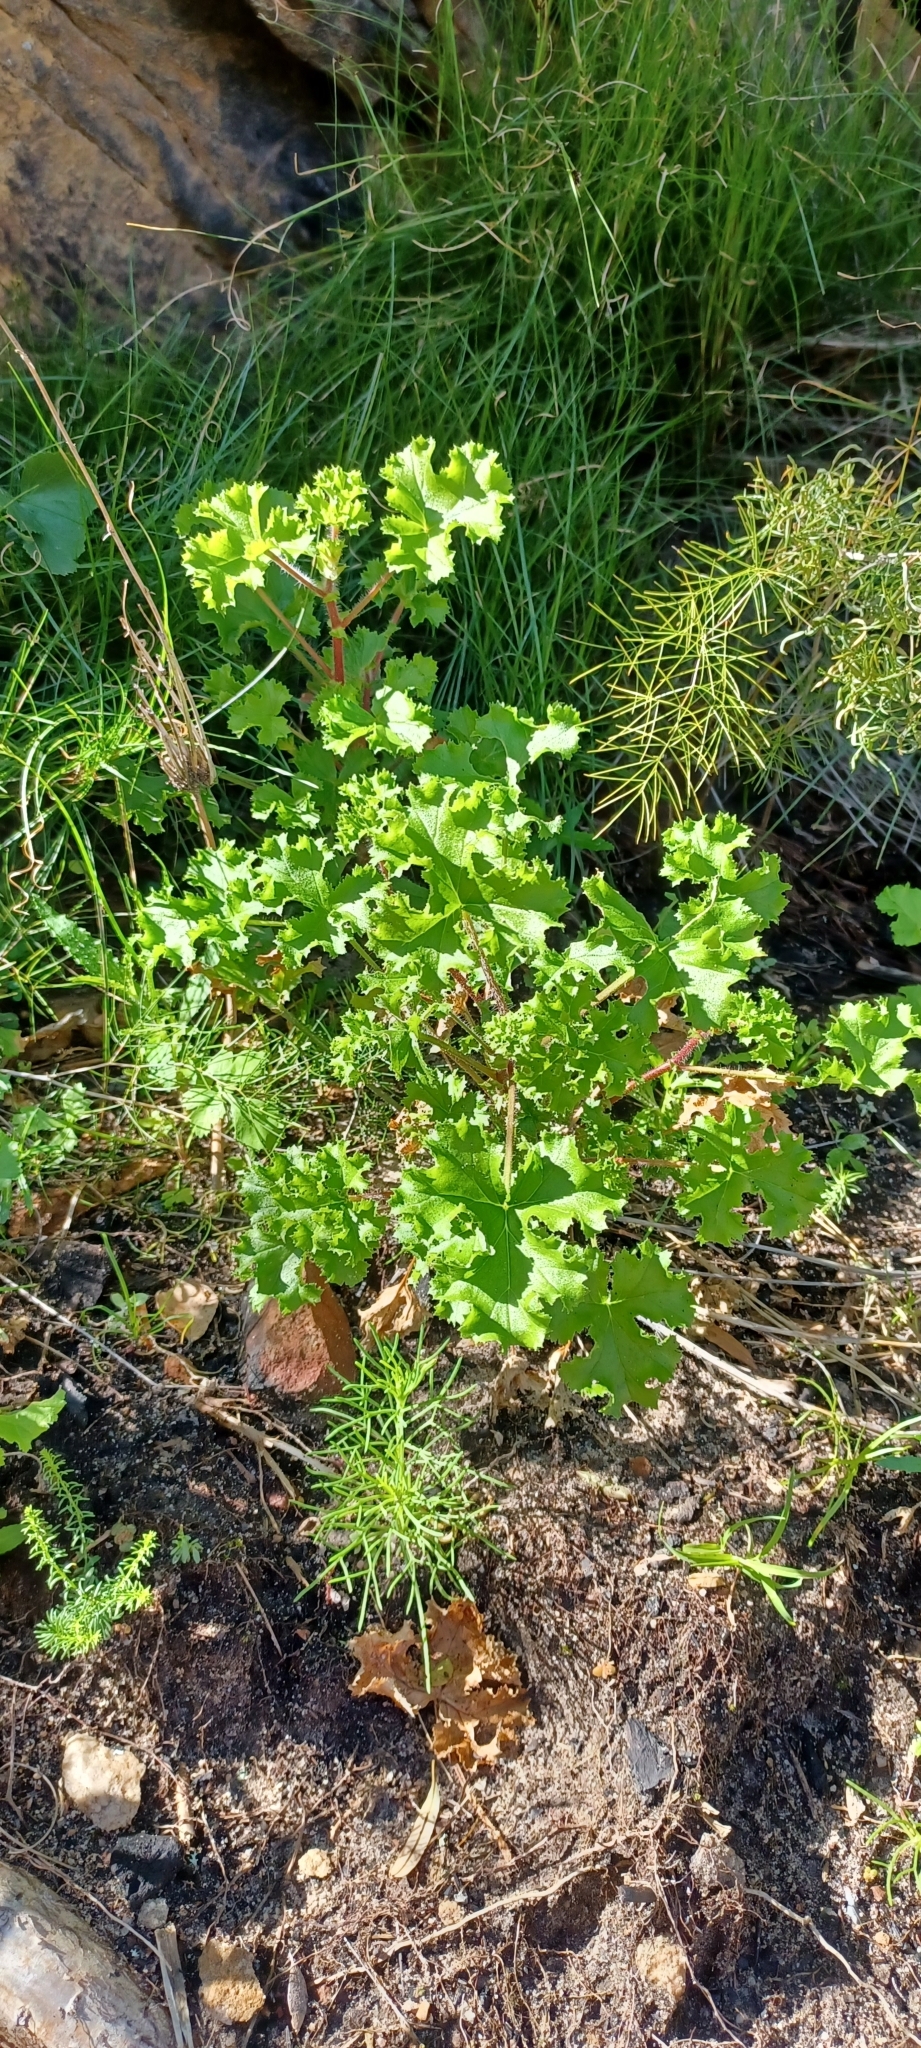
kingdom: Plantae
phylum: Tracheophyta
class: Magnoliopsida
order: Geraniales
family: Geraniaceae
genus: Pelargonium
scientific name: Pelargonium englerianum
